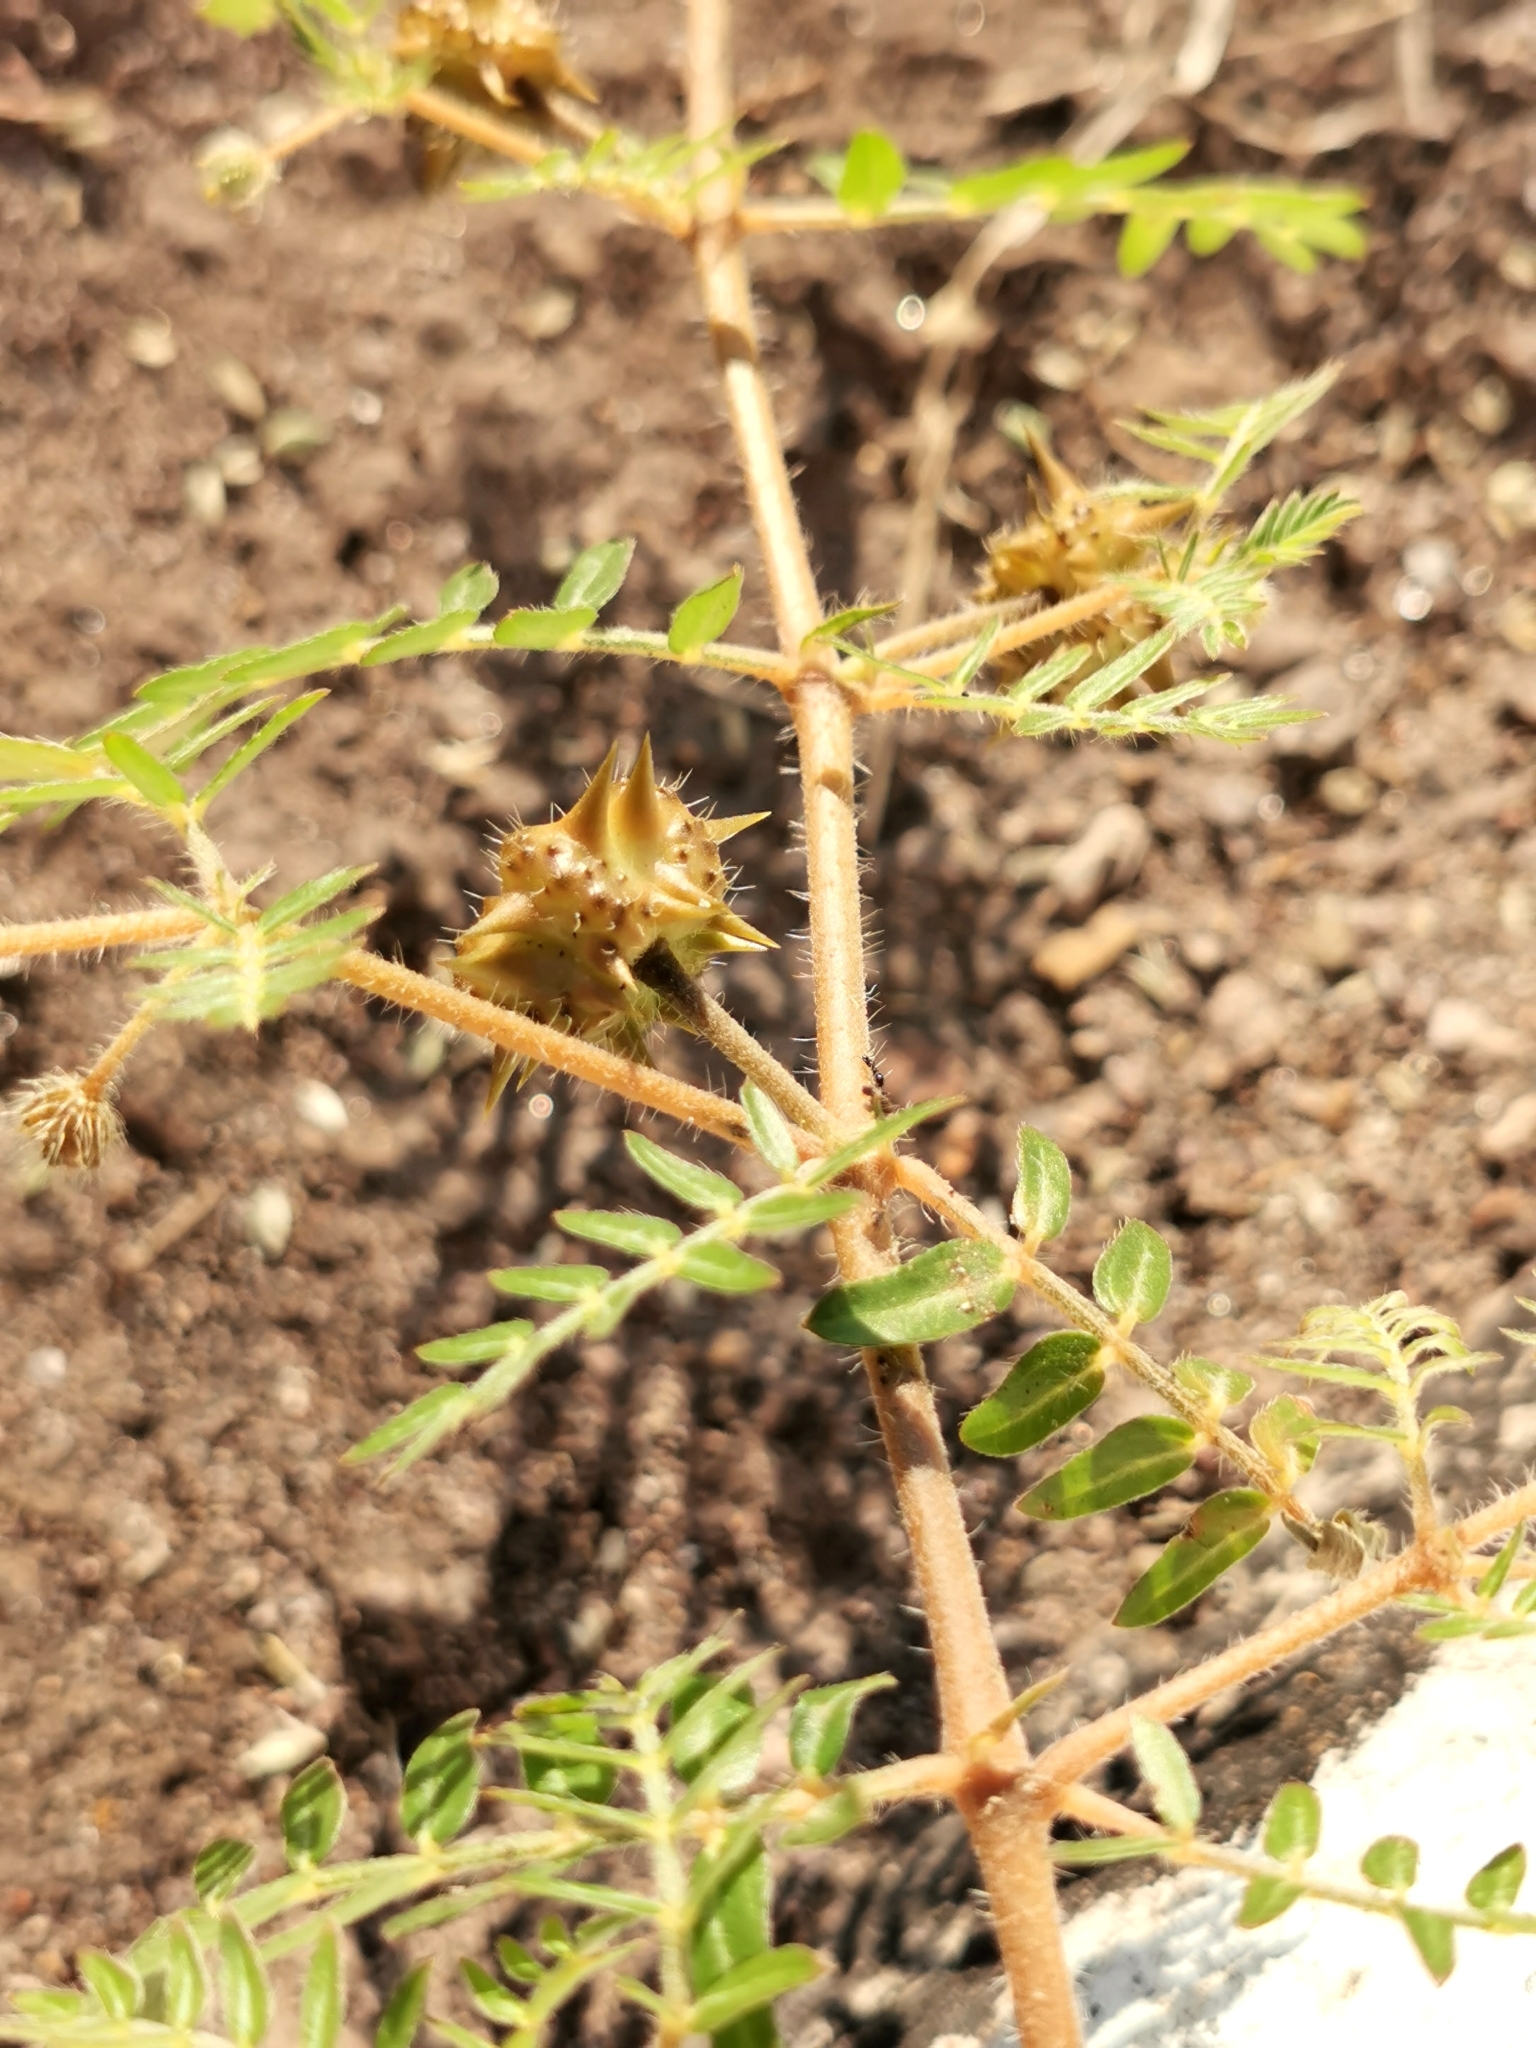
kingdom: Plantae
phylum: Tracheophyta
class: Magnoliopsida
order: Zygophyllales
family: Zygophyllaceae
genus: Tribulus
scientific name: Tribulus terrestris
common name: Puncturevine
